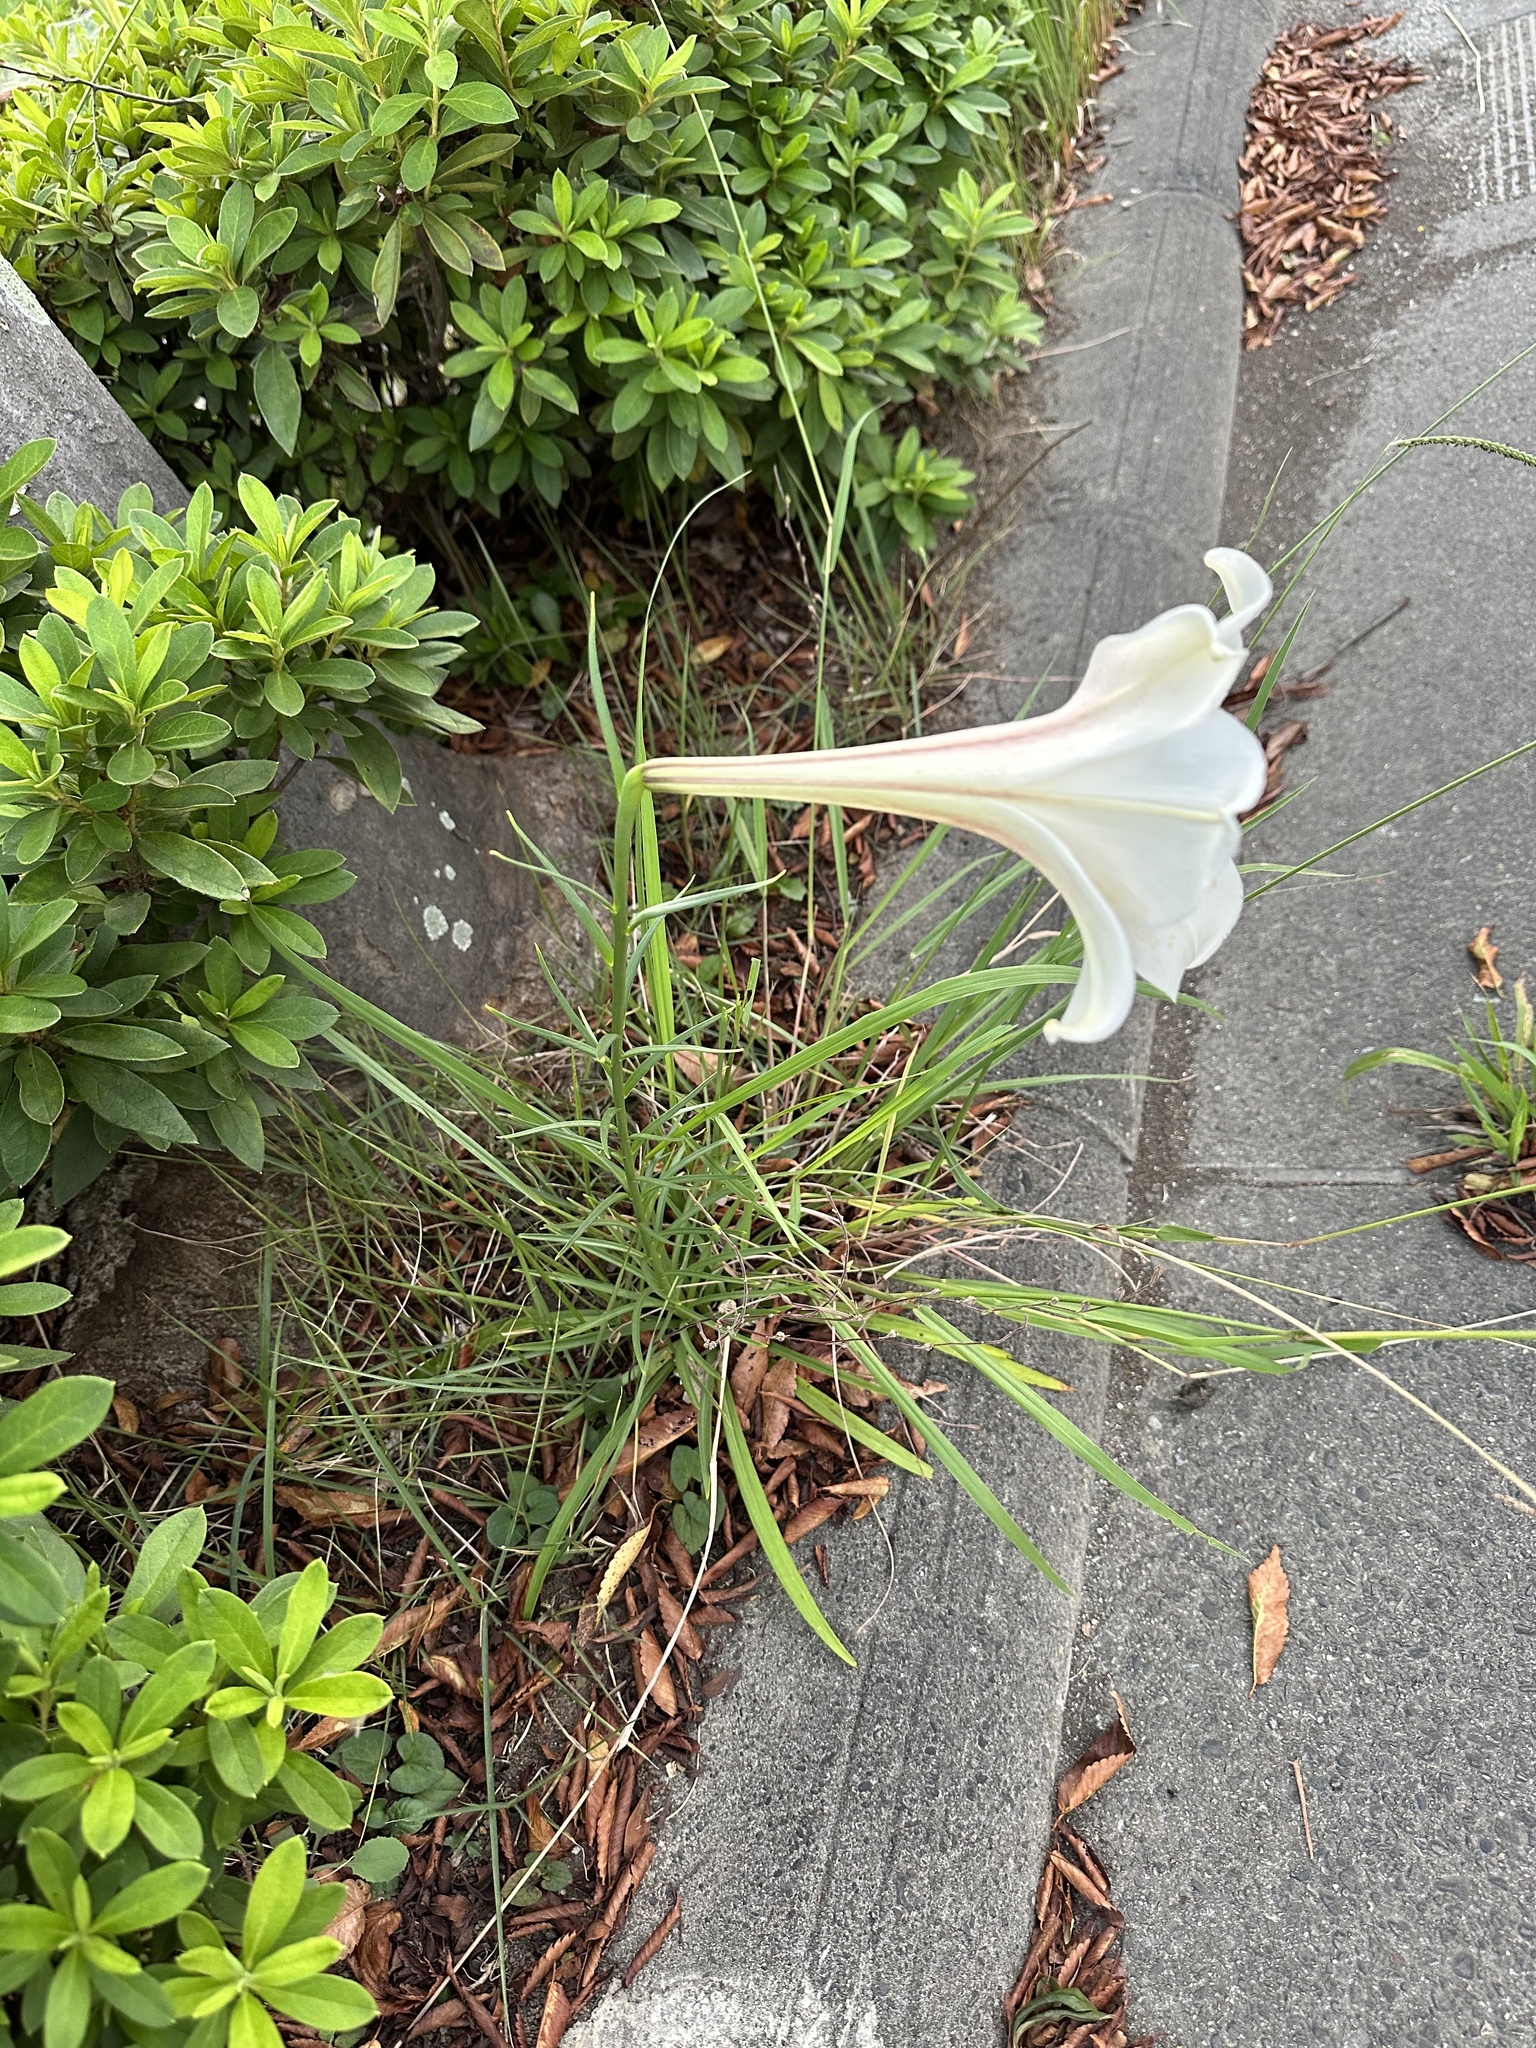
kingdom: Plantae
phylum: Tracheophyta
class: Liliopsida
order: Liliales
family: Liliaceae
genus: Lilium
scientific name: Lilium formosanum
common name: Formosa lily
